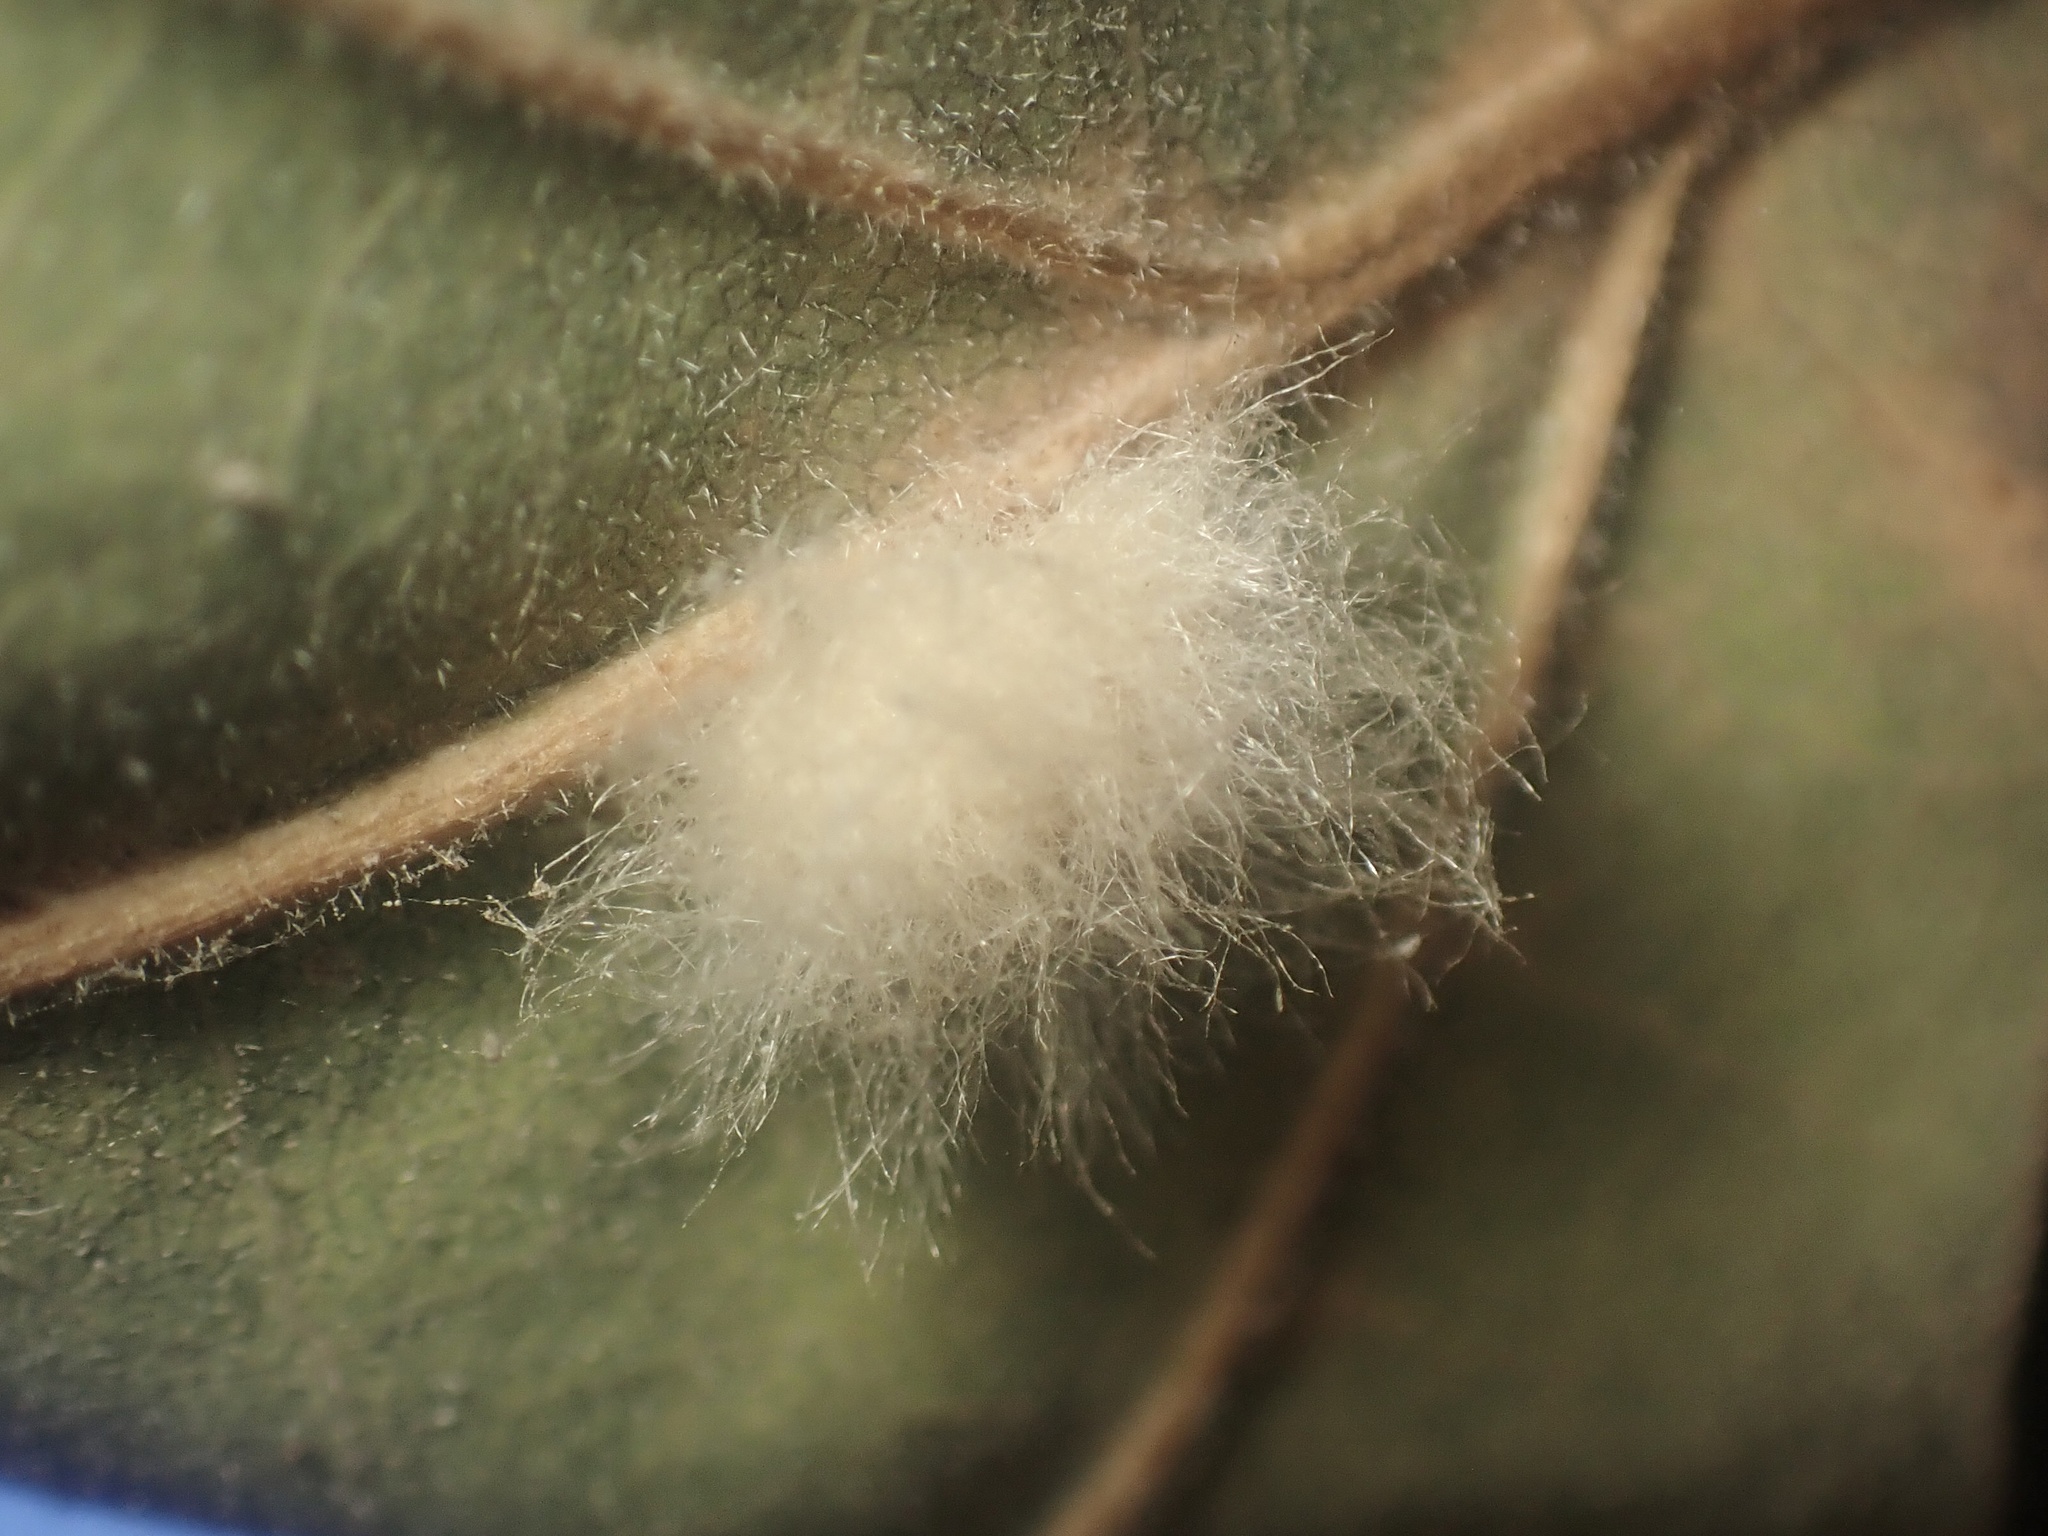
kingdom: Animalia
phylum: Arthropoda
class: Insecta
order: Hymenoptera
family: Cynipidae
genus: Andricus
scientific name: Andricus Druon fullawayi
